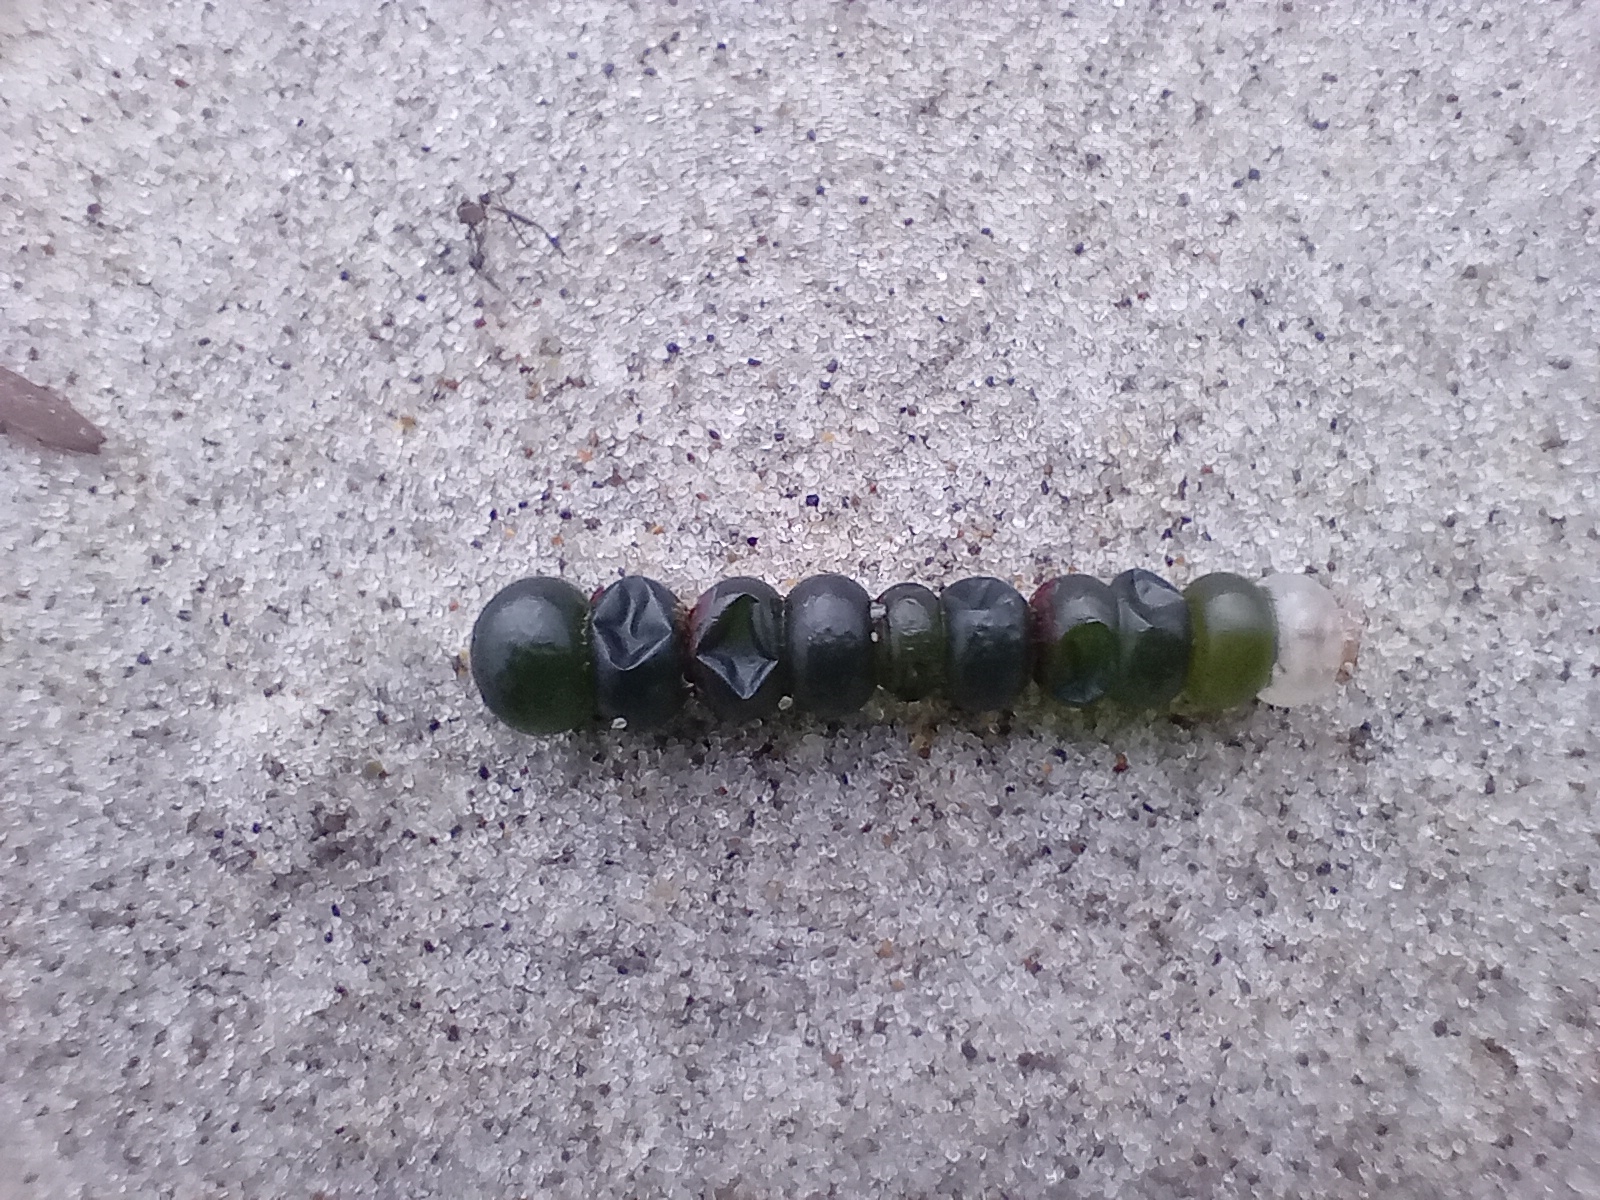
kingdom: Plantae
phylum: Chlorophyta
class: Ulvophyceae
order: Cladophorales
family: Cladophoraceae
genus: Chaetomorpha
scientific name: Chaetomorpha coliformis
